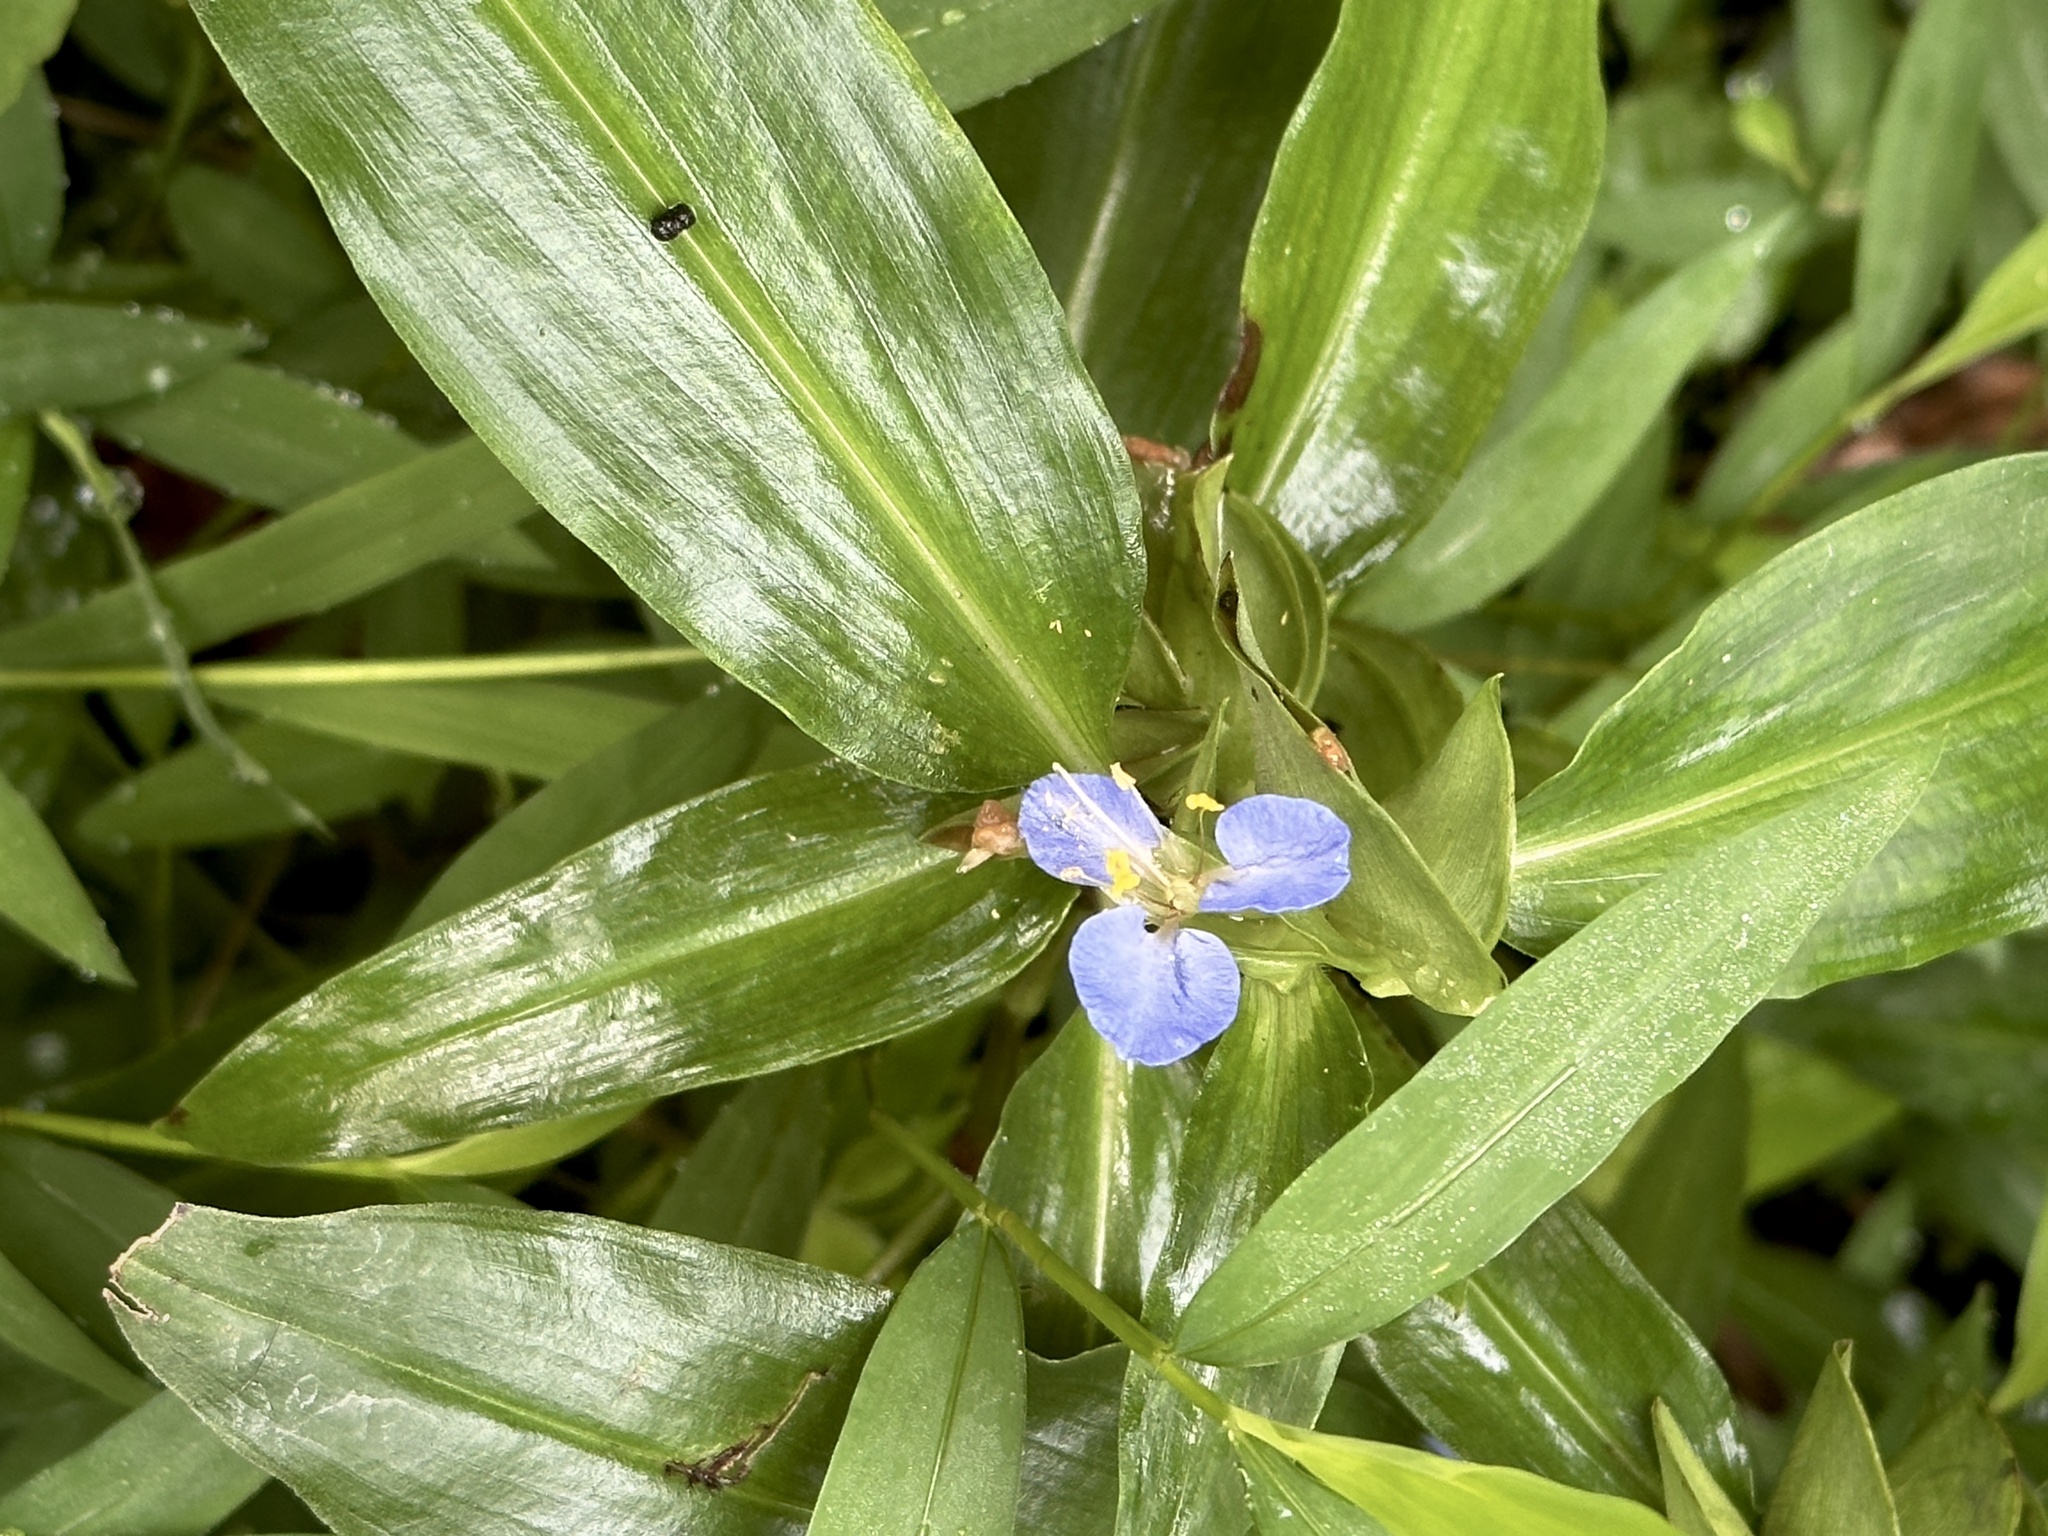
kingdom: Plantae
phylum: Tracheophyta
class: Liliopsida
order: Commelinales
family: Commelinaceae
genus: Commelina
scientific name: Commelina virginica
